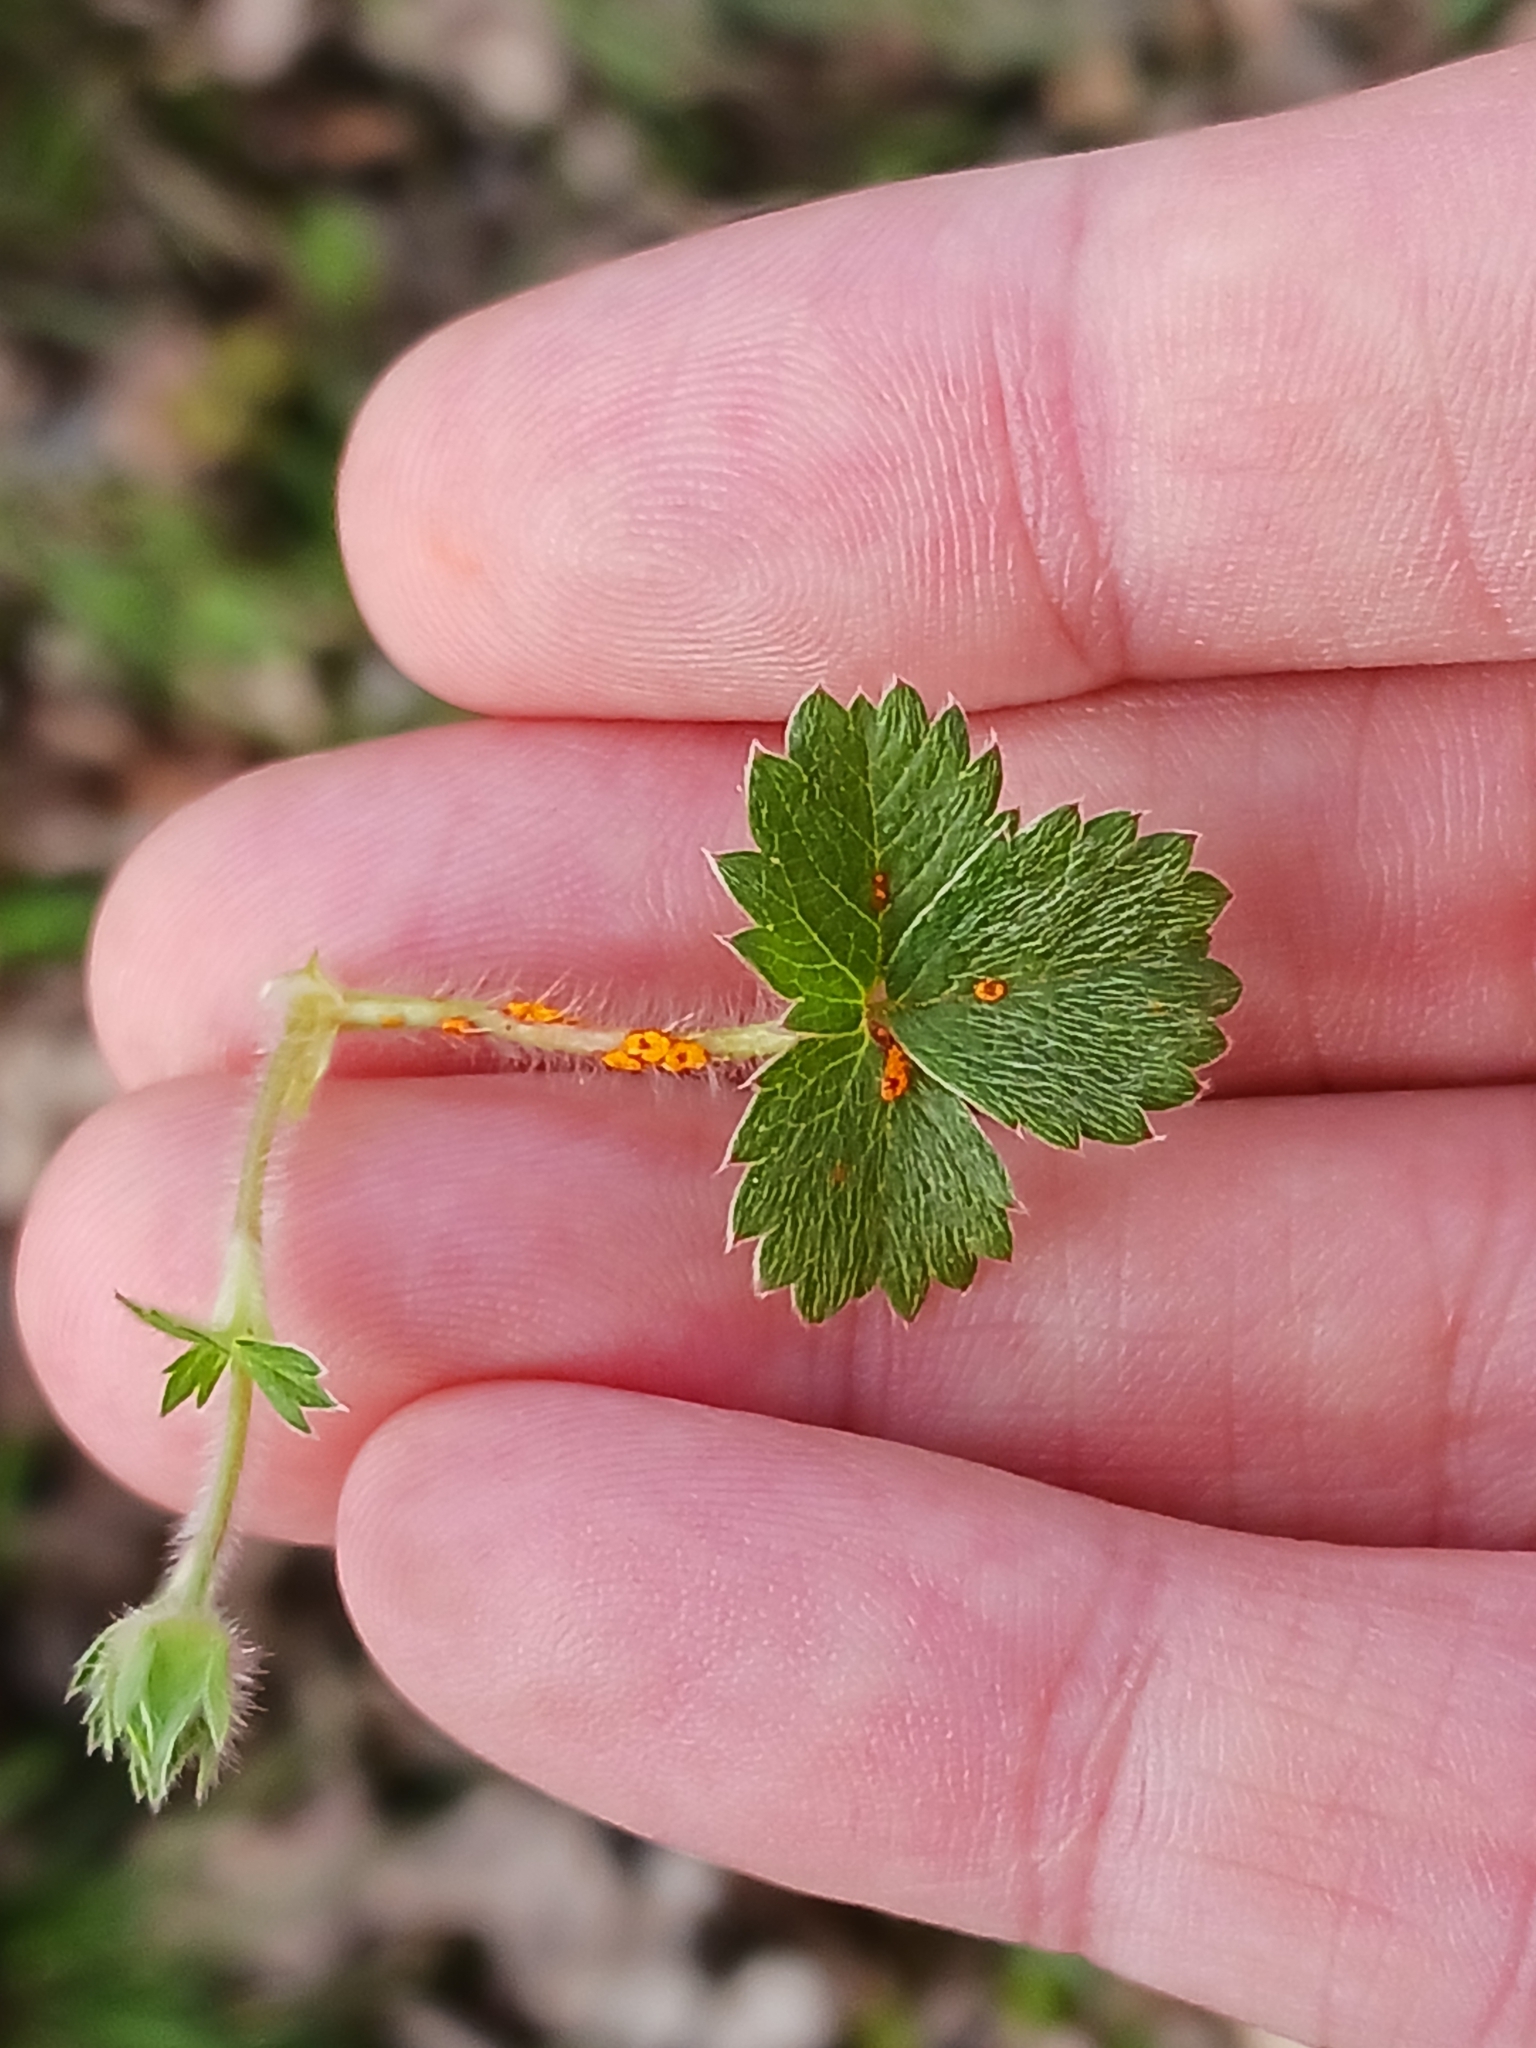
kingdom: Fungi
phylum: Basidiomycota
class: Pucciniomycetes
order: Pucciniales
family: Phragmidiaceae
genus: Phragmidium
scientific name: Phragmidium fragariae
